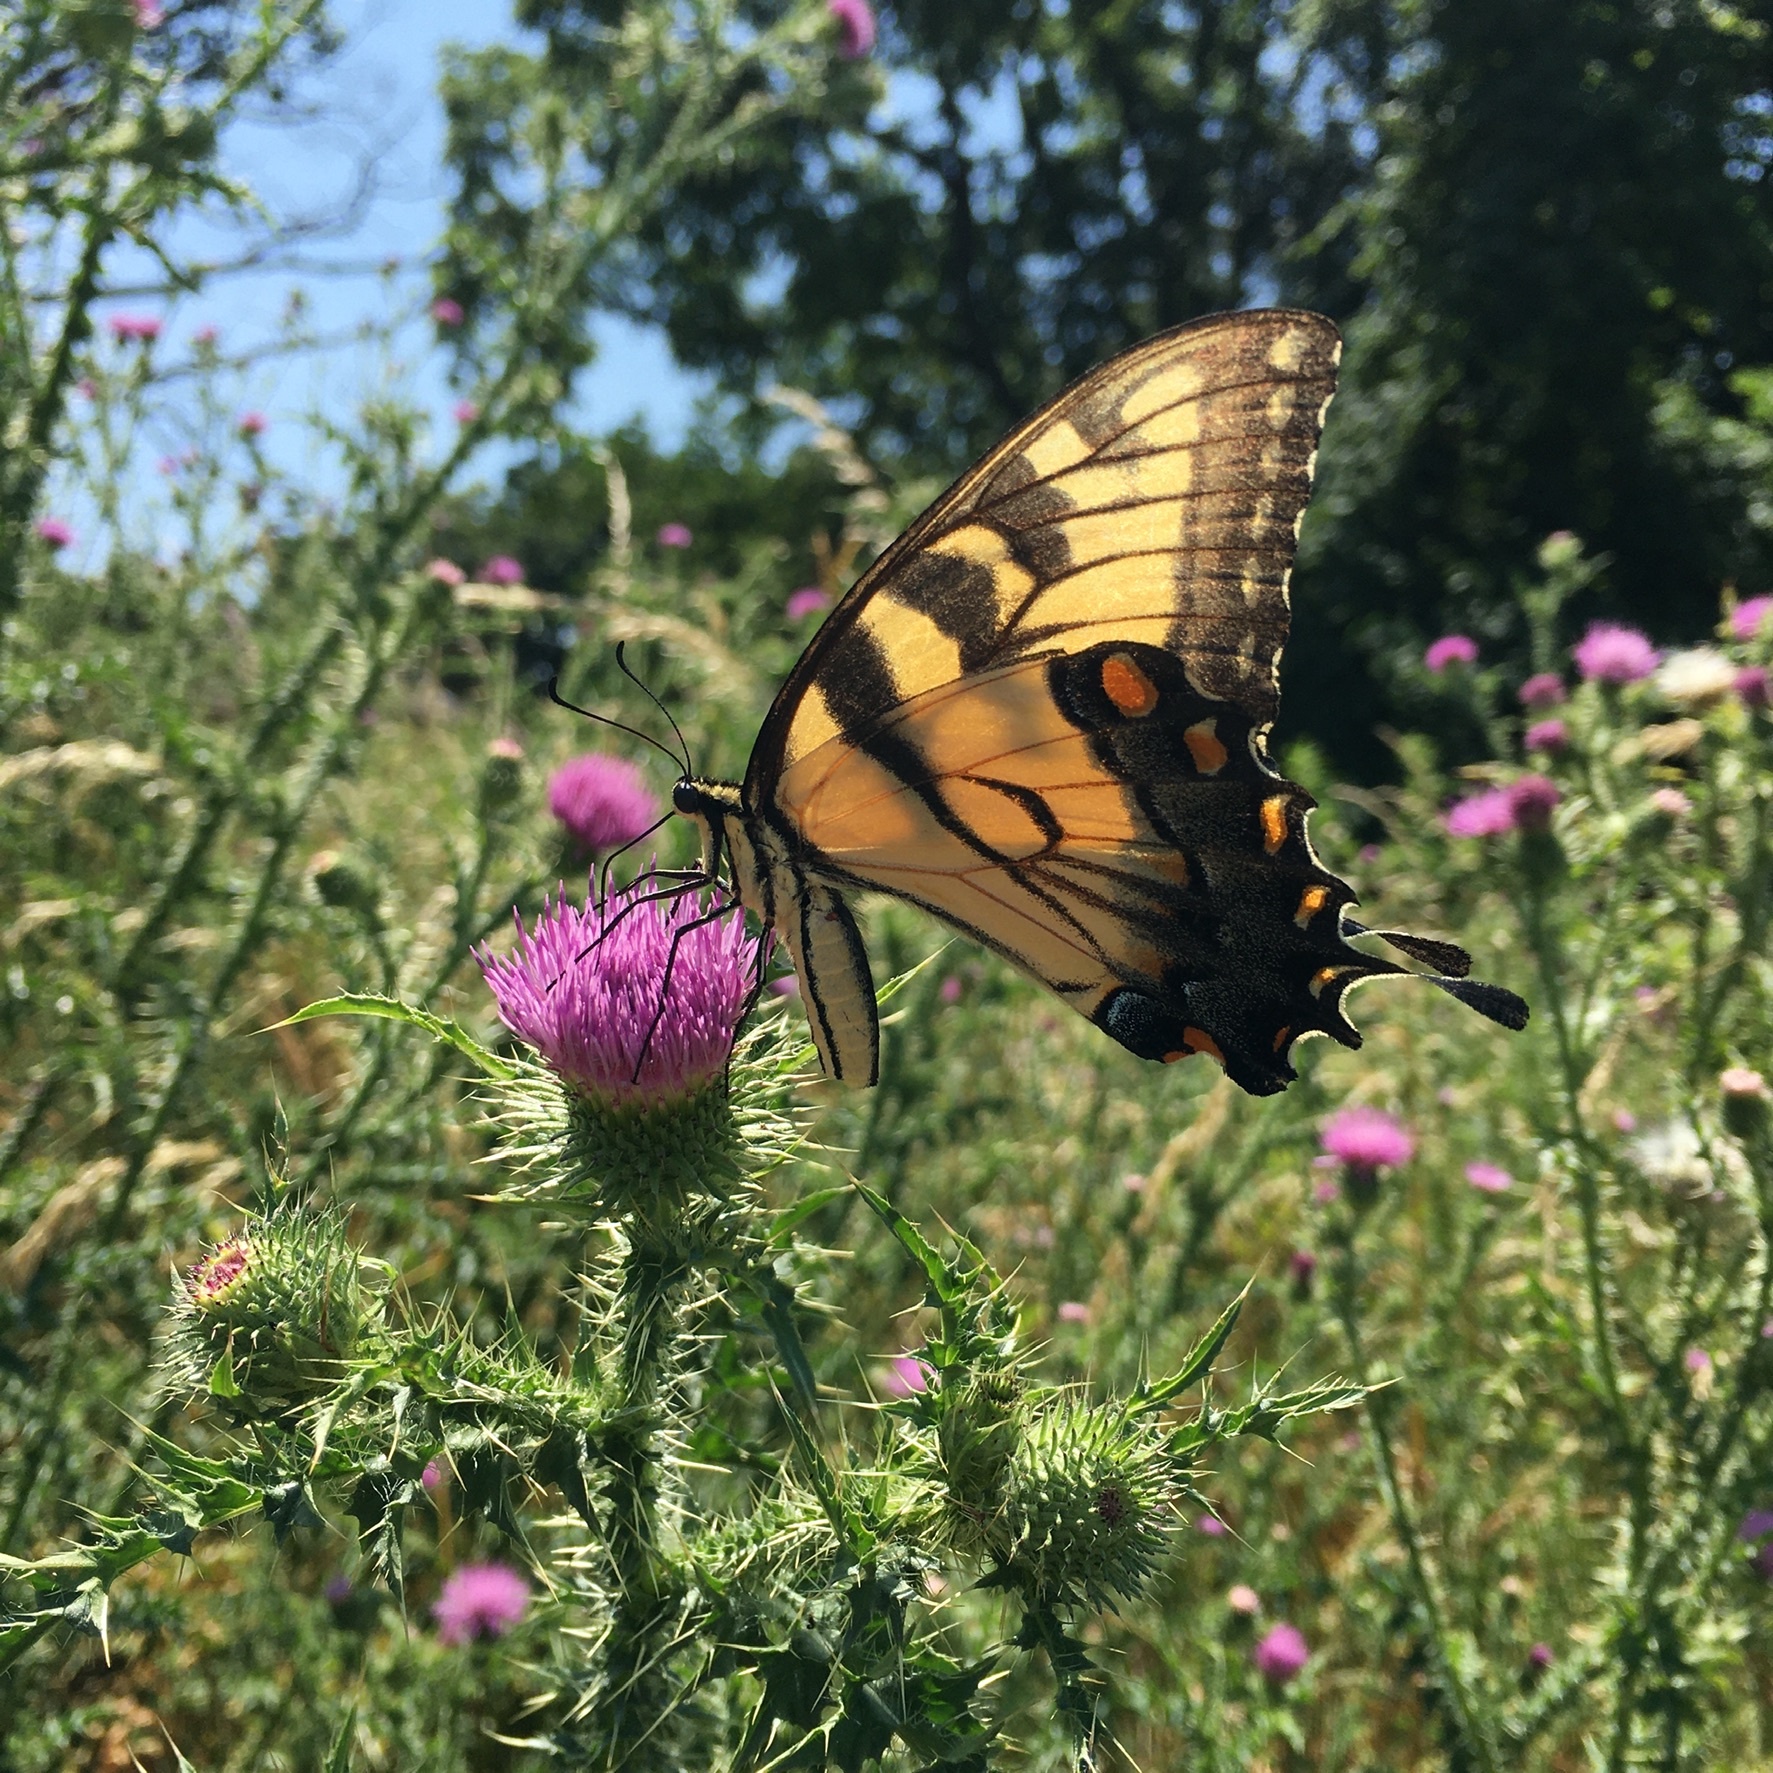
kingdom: Animalia
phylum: Arthropoda
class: Insecta
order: Lepidoptera
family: Papilionidae
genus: Papilio
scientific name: Papilio glaucus
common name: Tiger swallowtail
